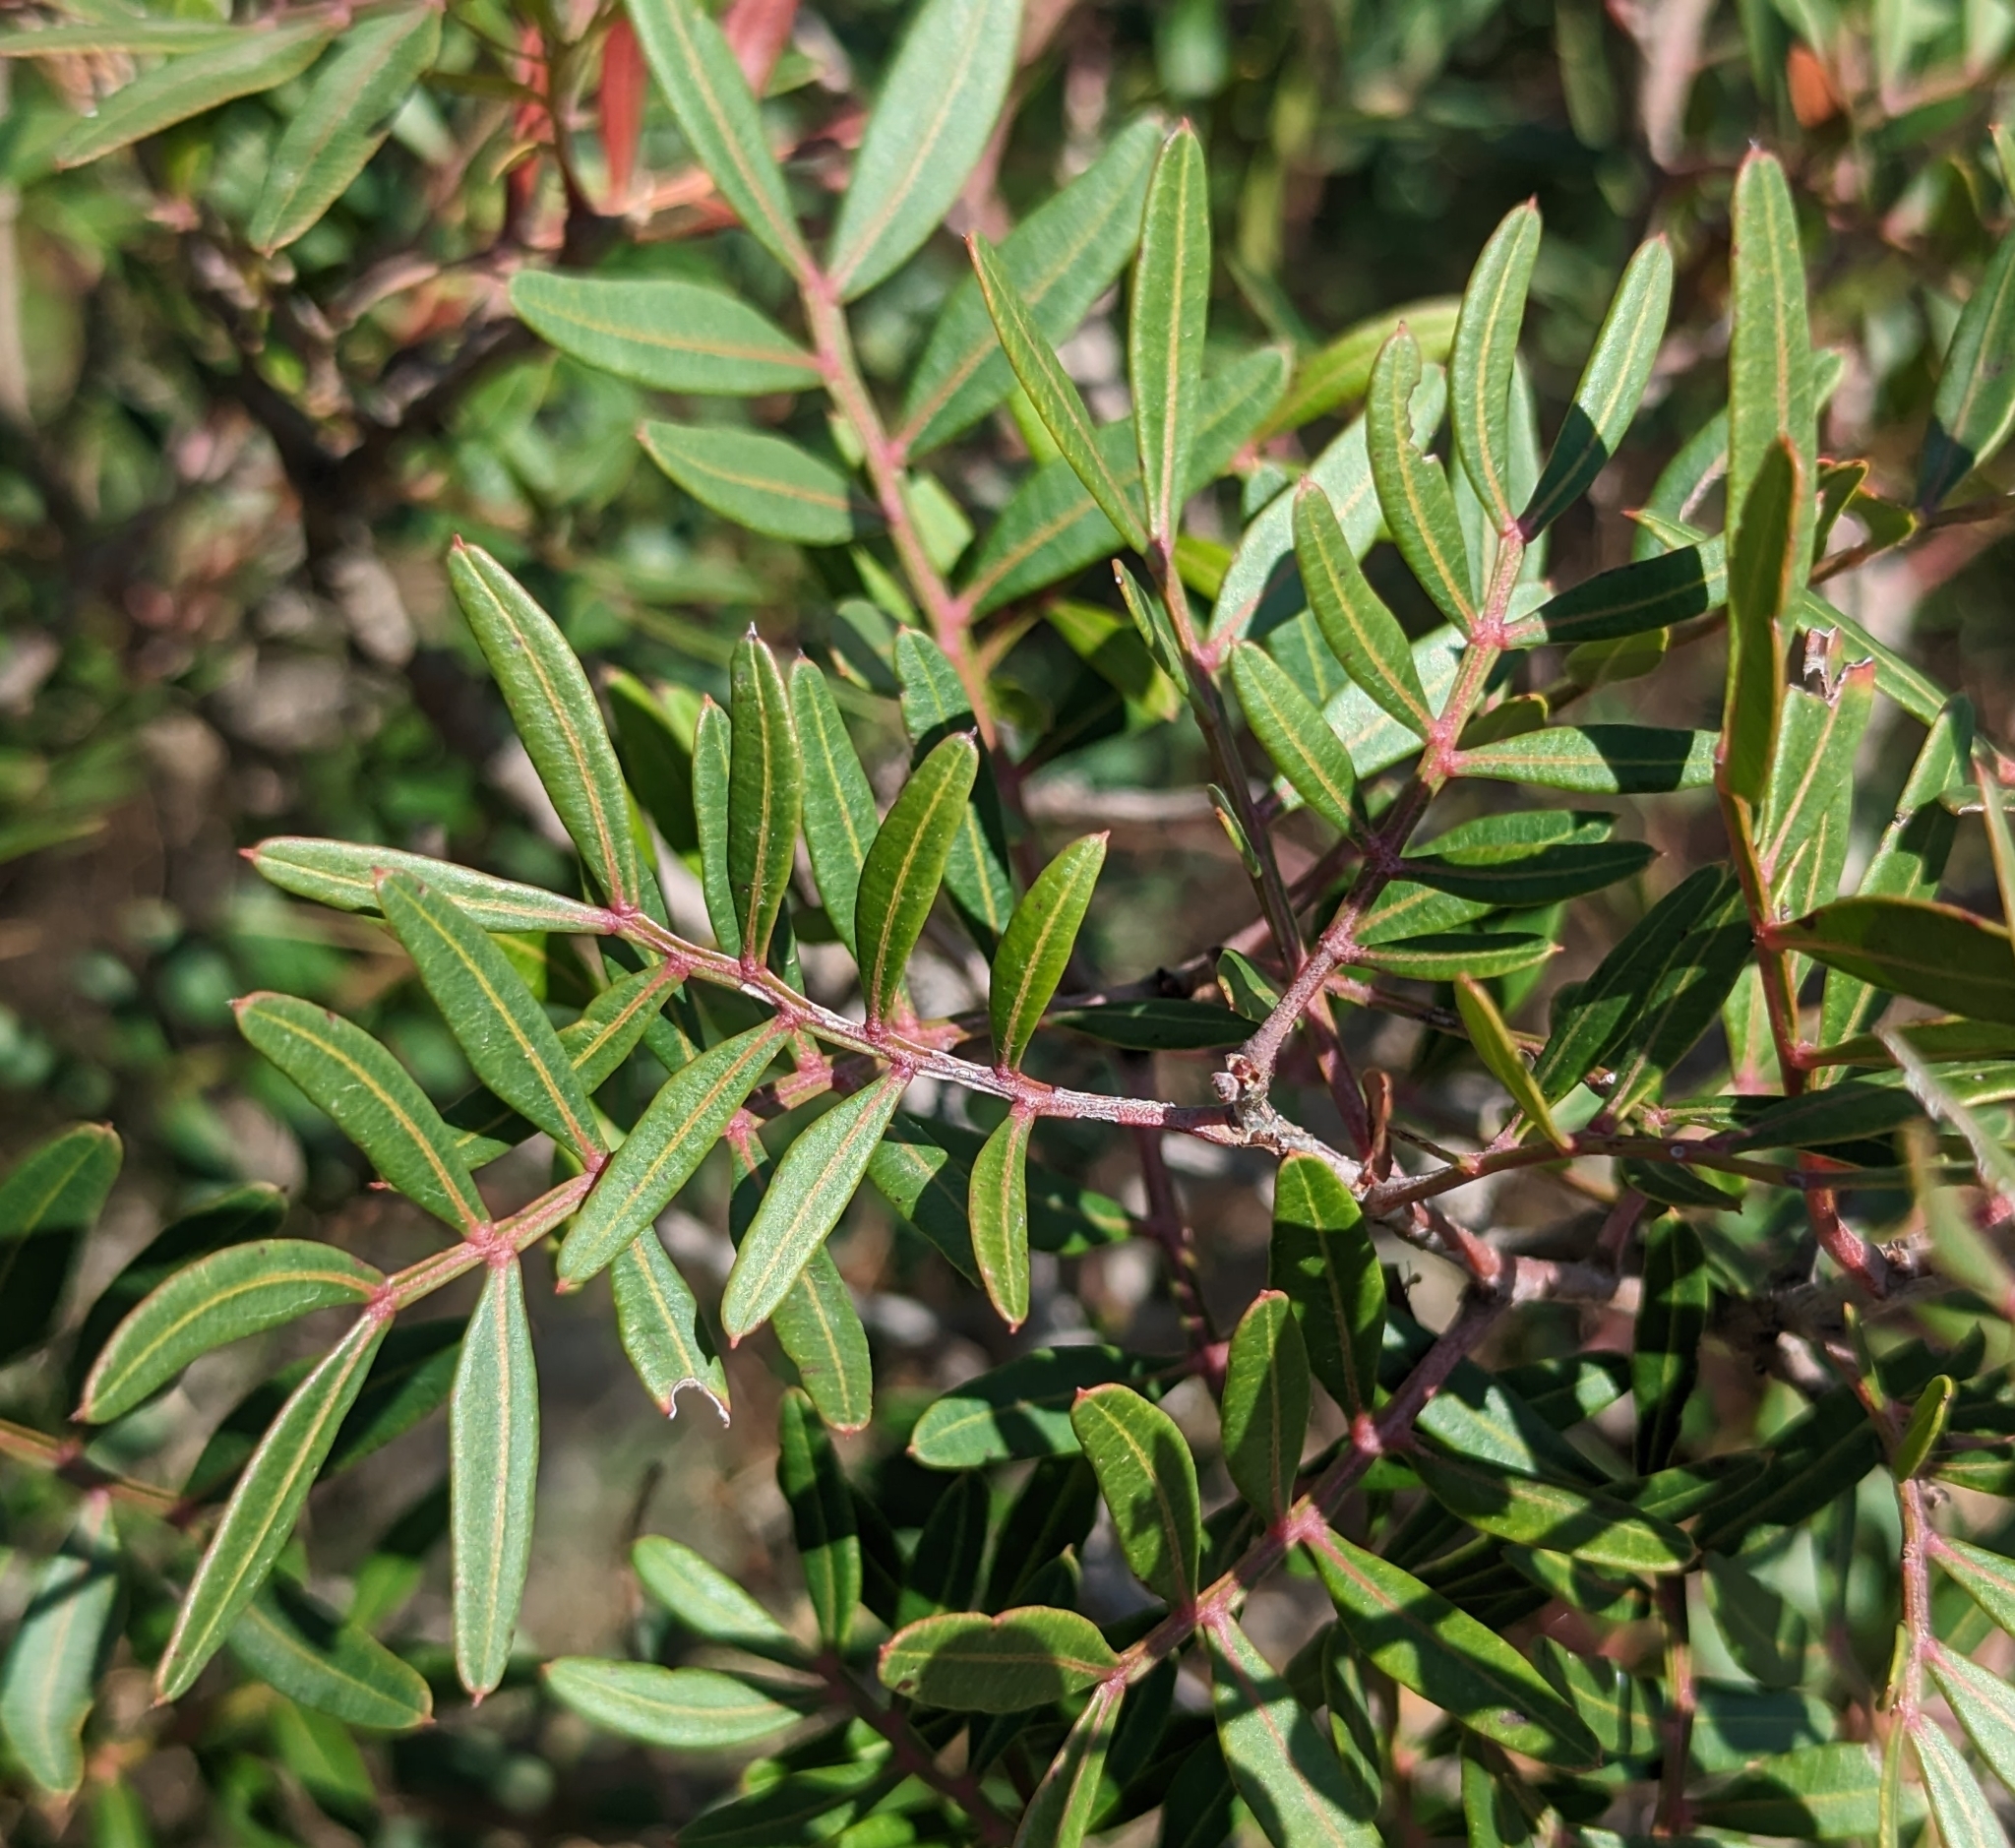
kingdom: Plantae
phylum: Tracheophyta
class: Magnoliopsida
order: Sapindales
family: Anacardiaceae
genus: Pistacia
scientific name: Pistacia lentiscus
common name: Lentisk
